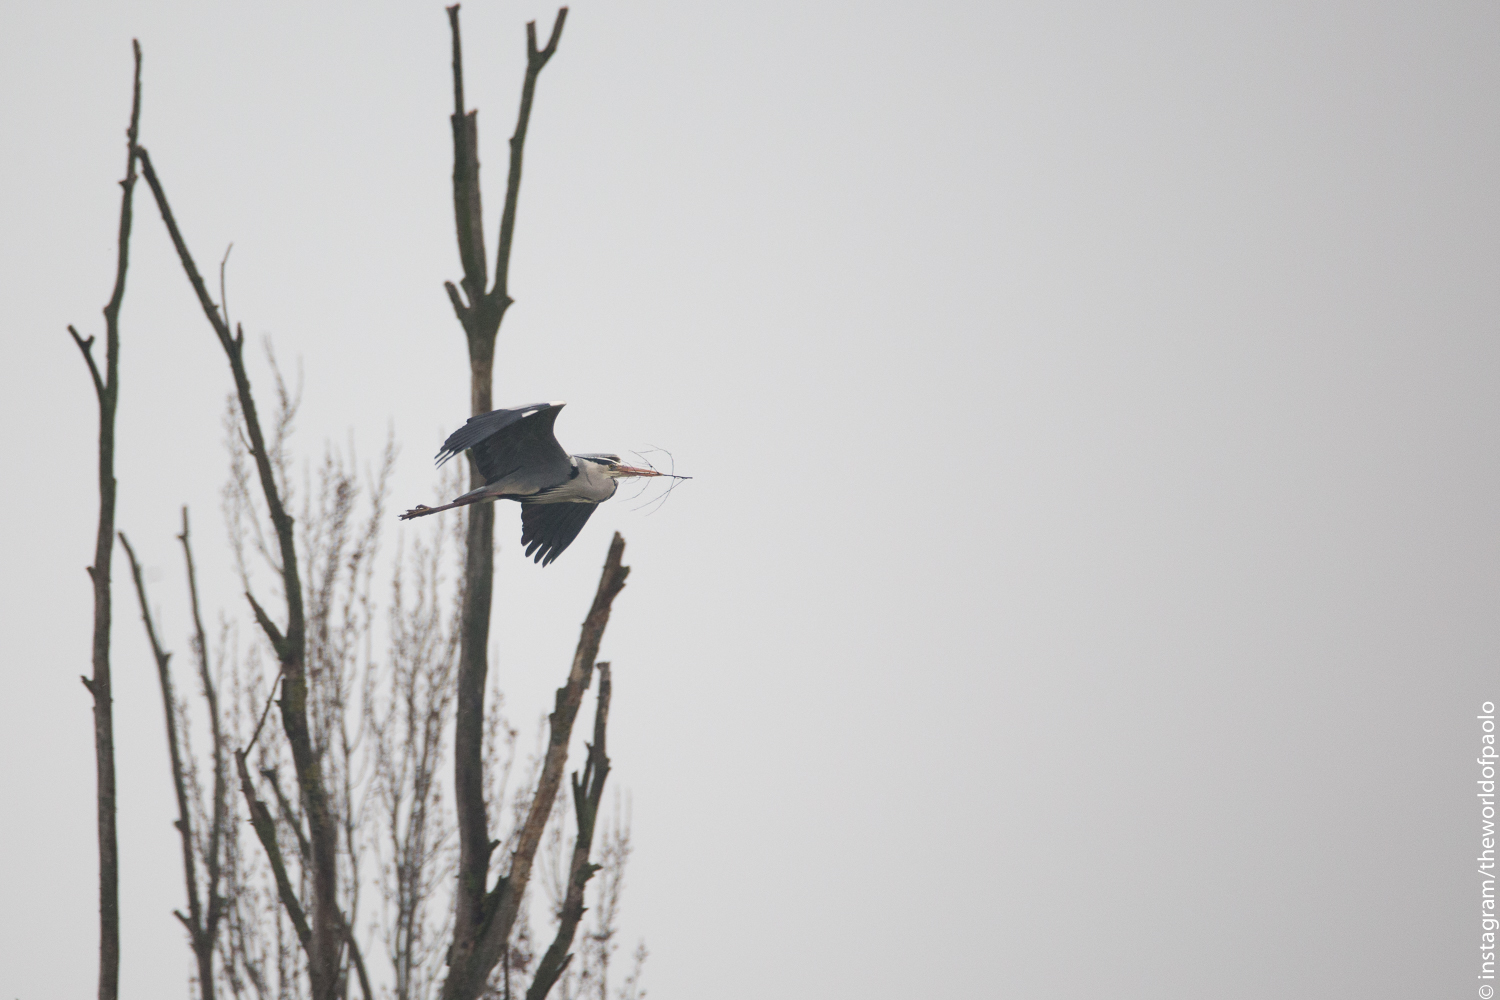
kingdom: Animalia
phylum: Chordata
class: Aves
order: Pelecaniformes
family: Ardeidae
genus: Ardea
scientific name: Ardea cinerea
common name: Grey heron
